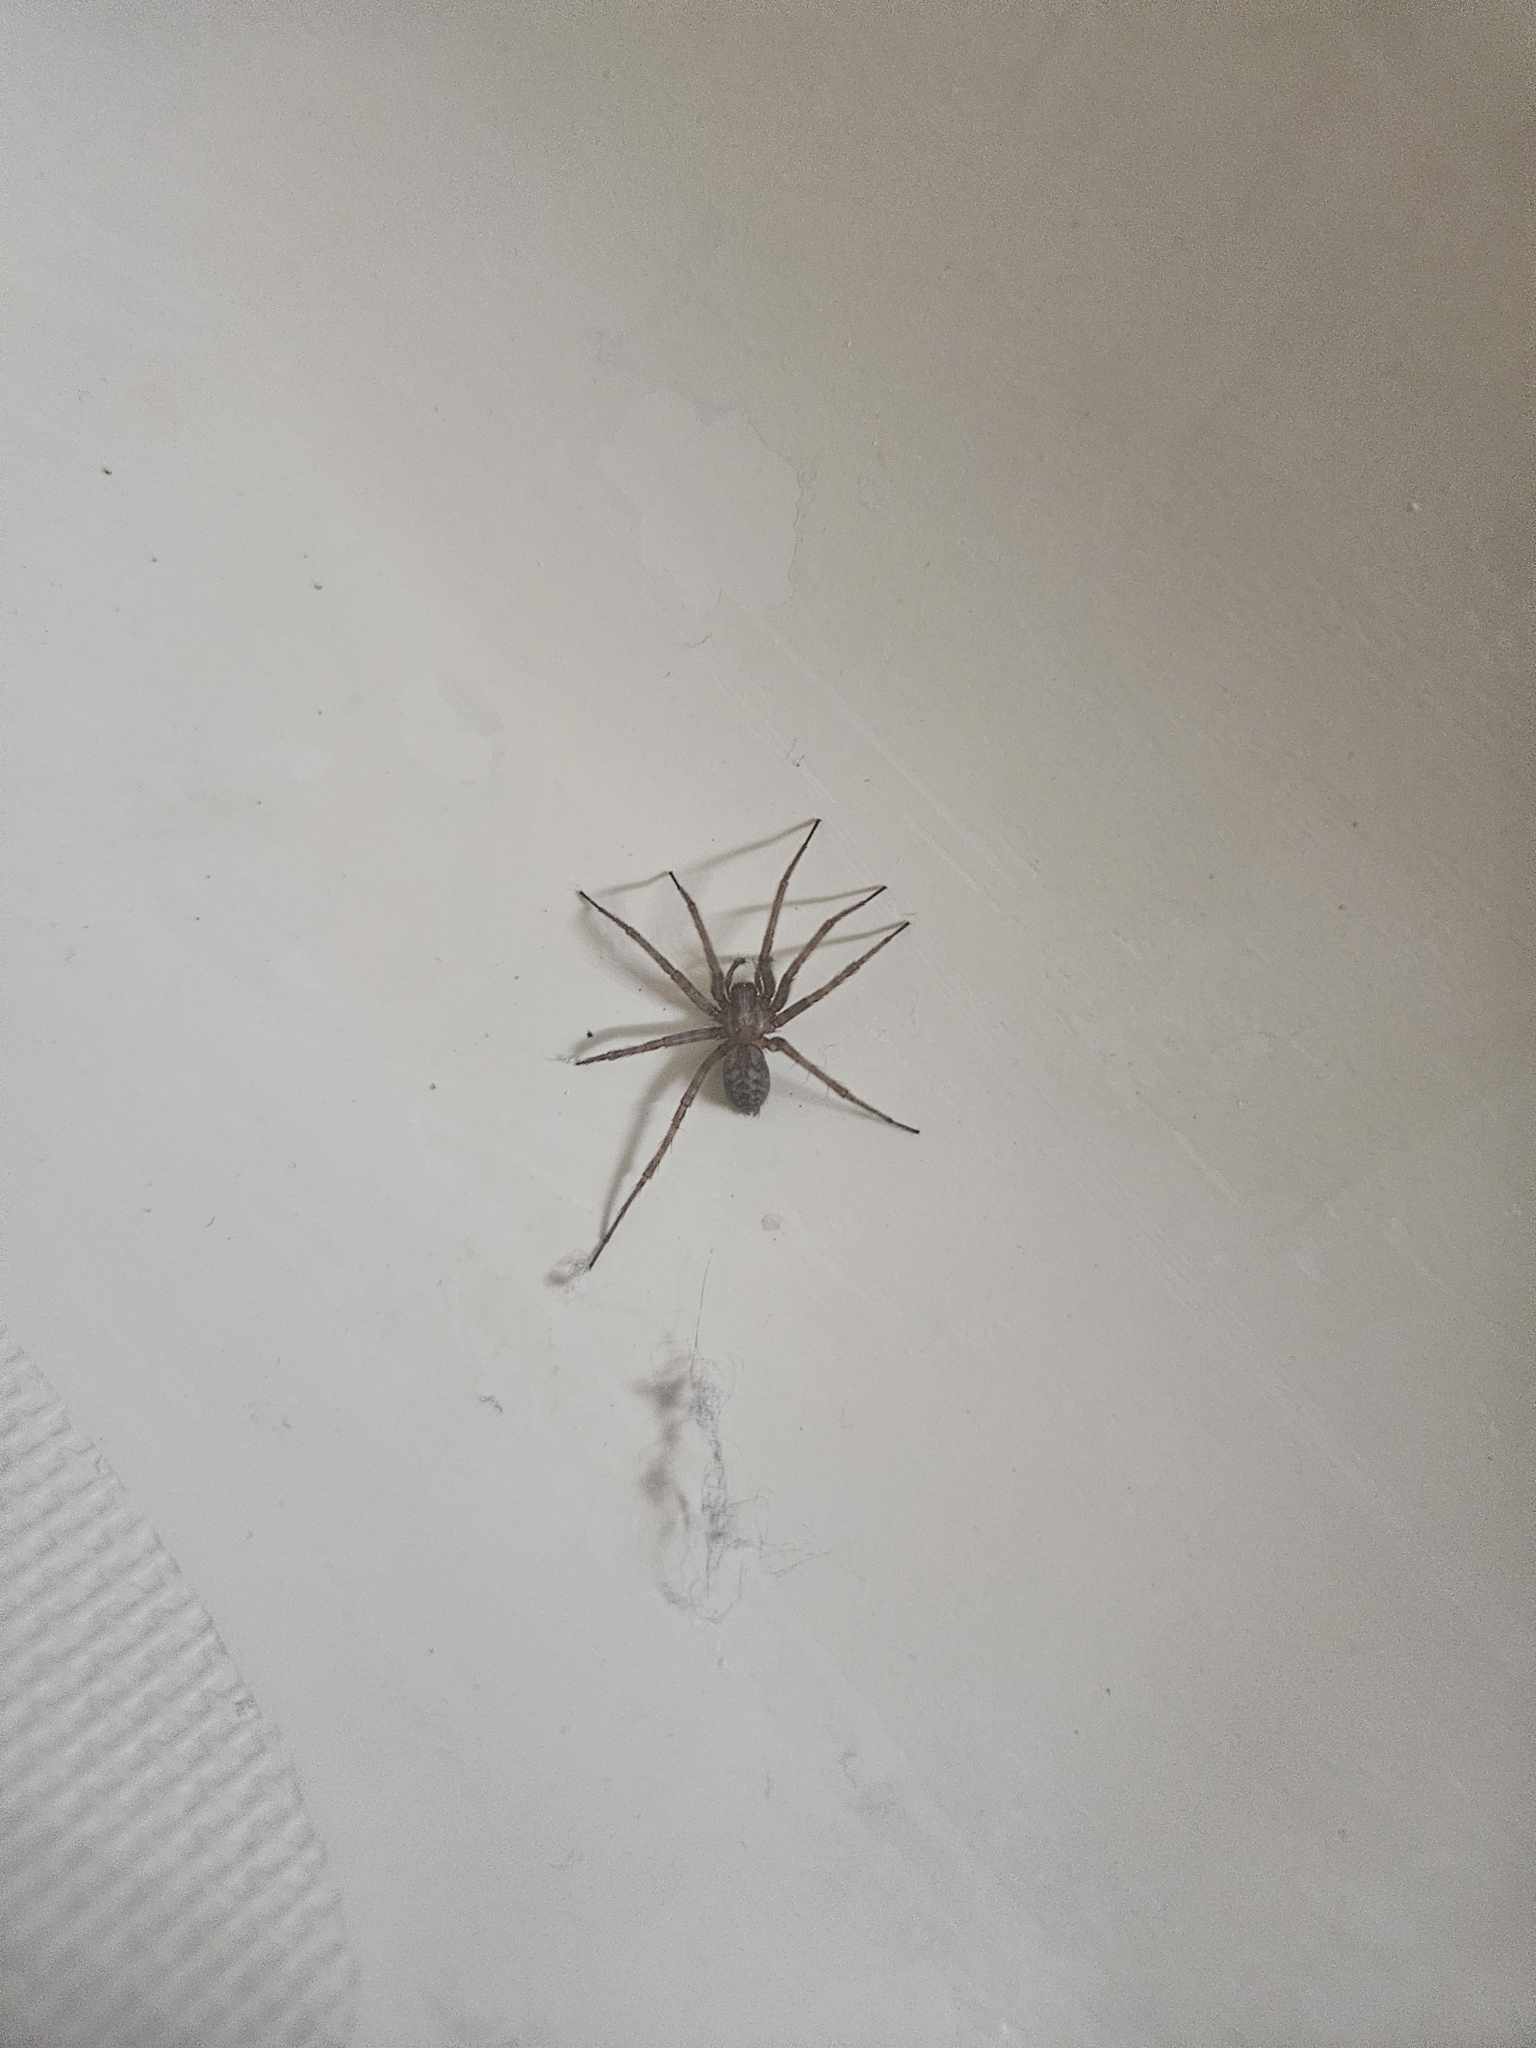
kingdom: Animalia
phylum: Arthropoda
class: Arachnida
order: Araneae
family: Agelenidae
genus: Tegenaria
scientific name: Tegenaria domestica
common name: Barn funnel weaver
